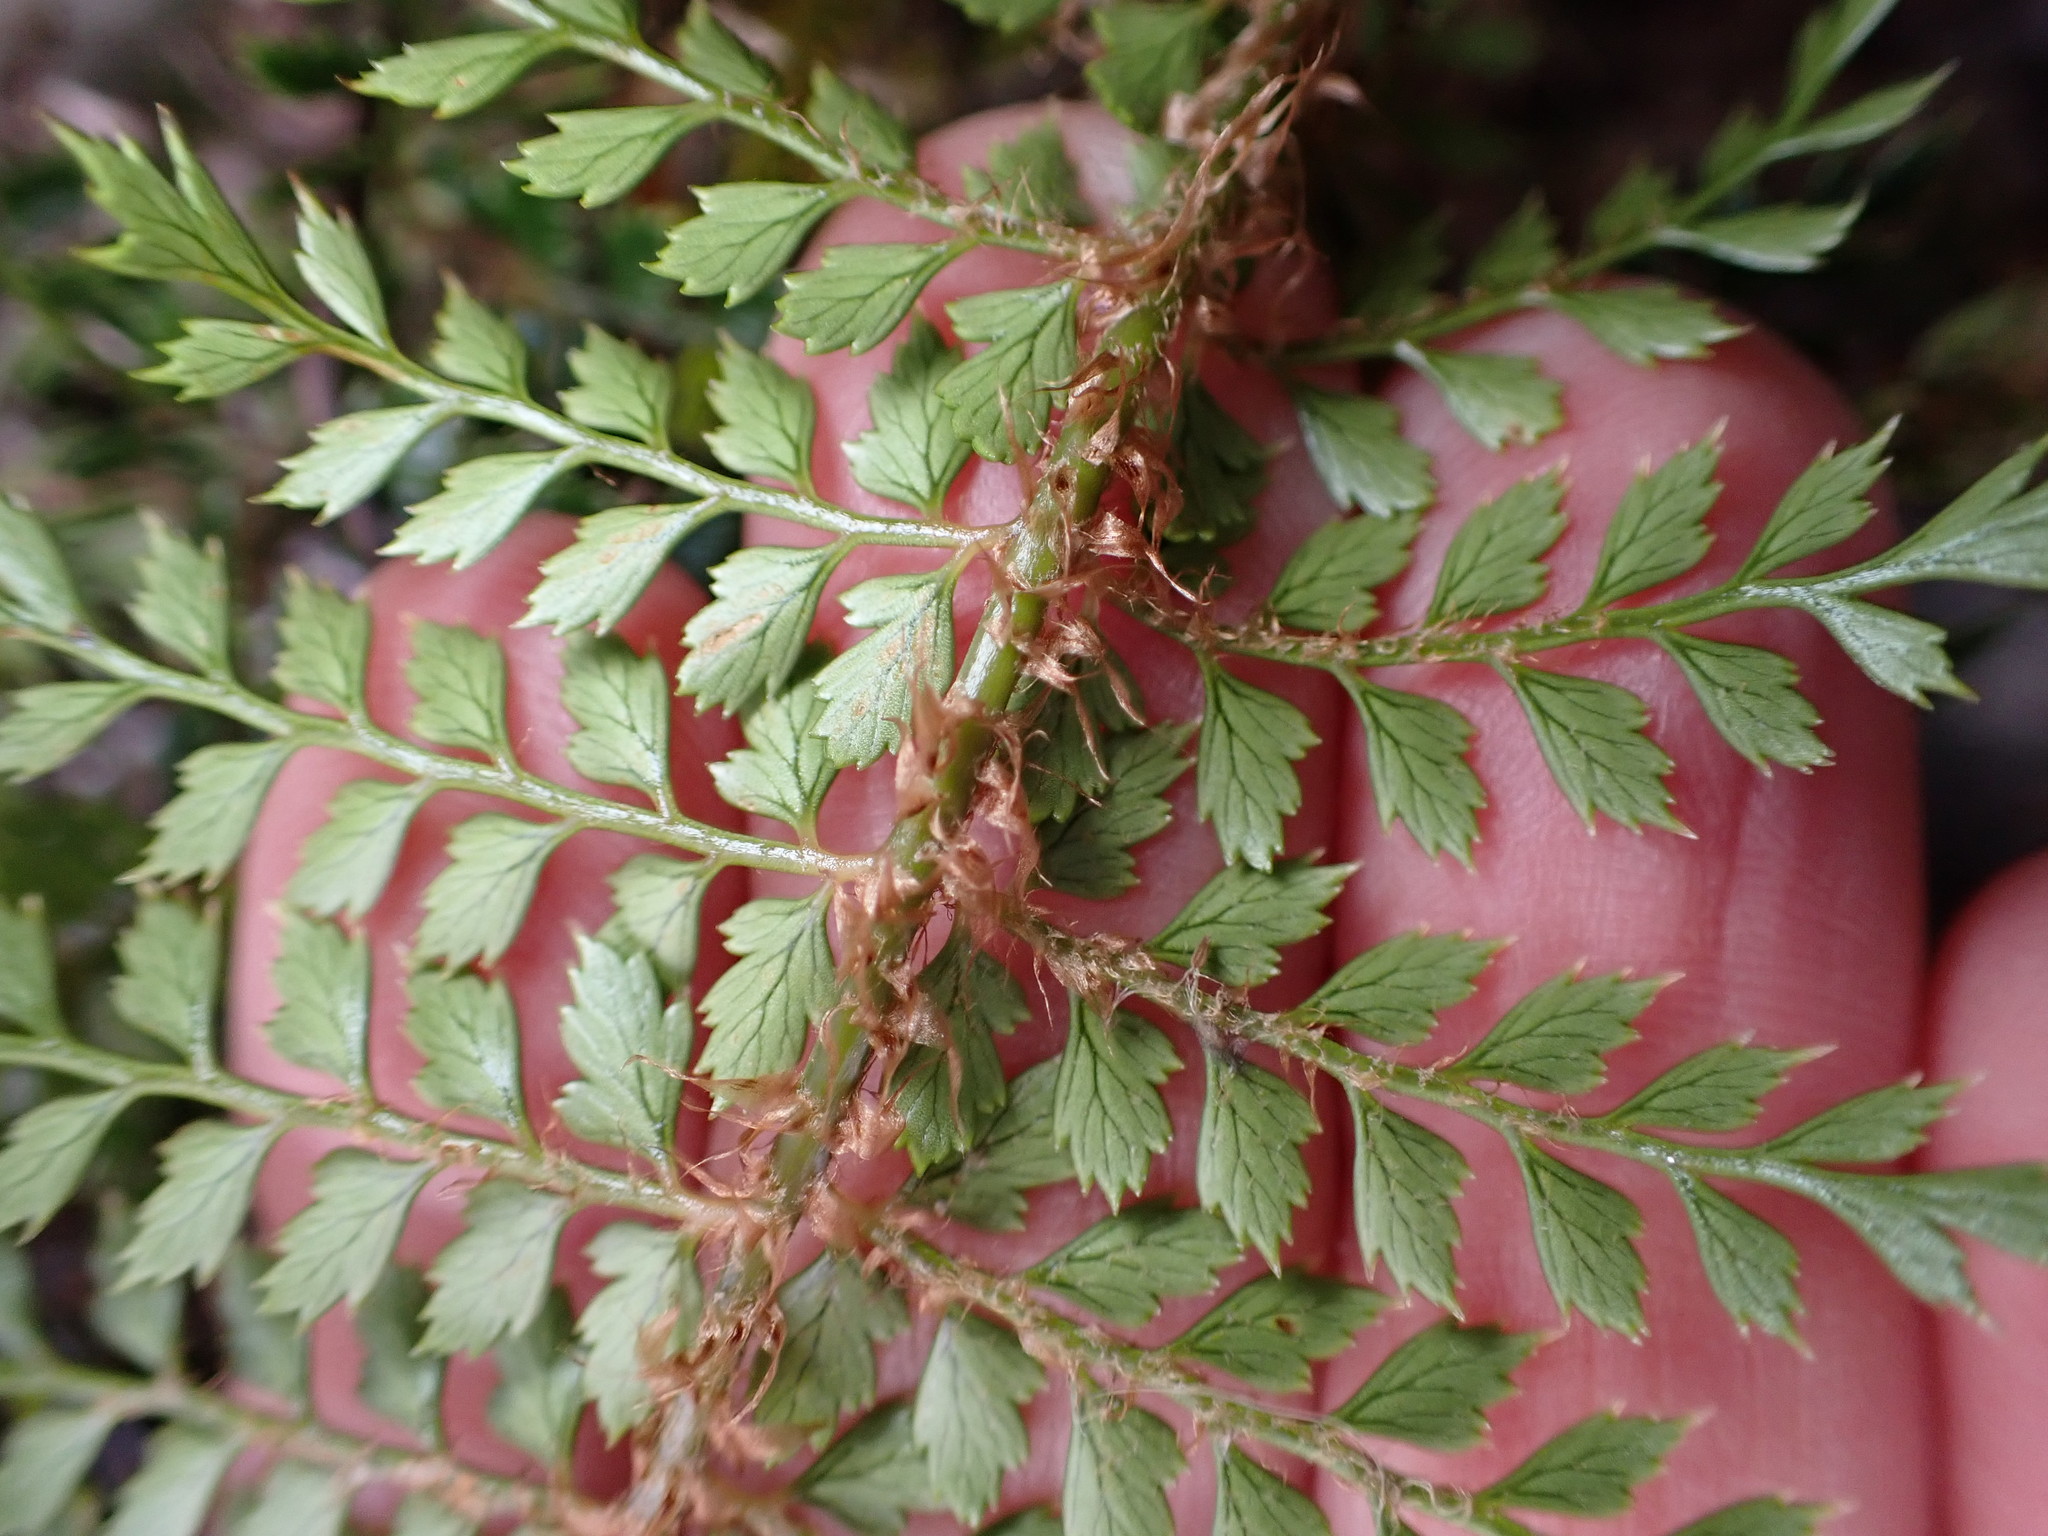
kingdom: Plantae
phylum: Tracheophyta
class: Polypodiopsida
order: Polypodiales
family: Dryopteridaceae
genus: Polystichum
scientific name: Polystichum vestitum
